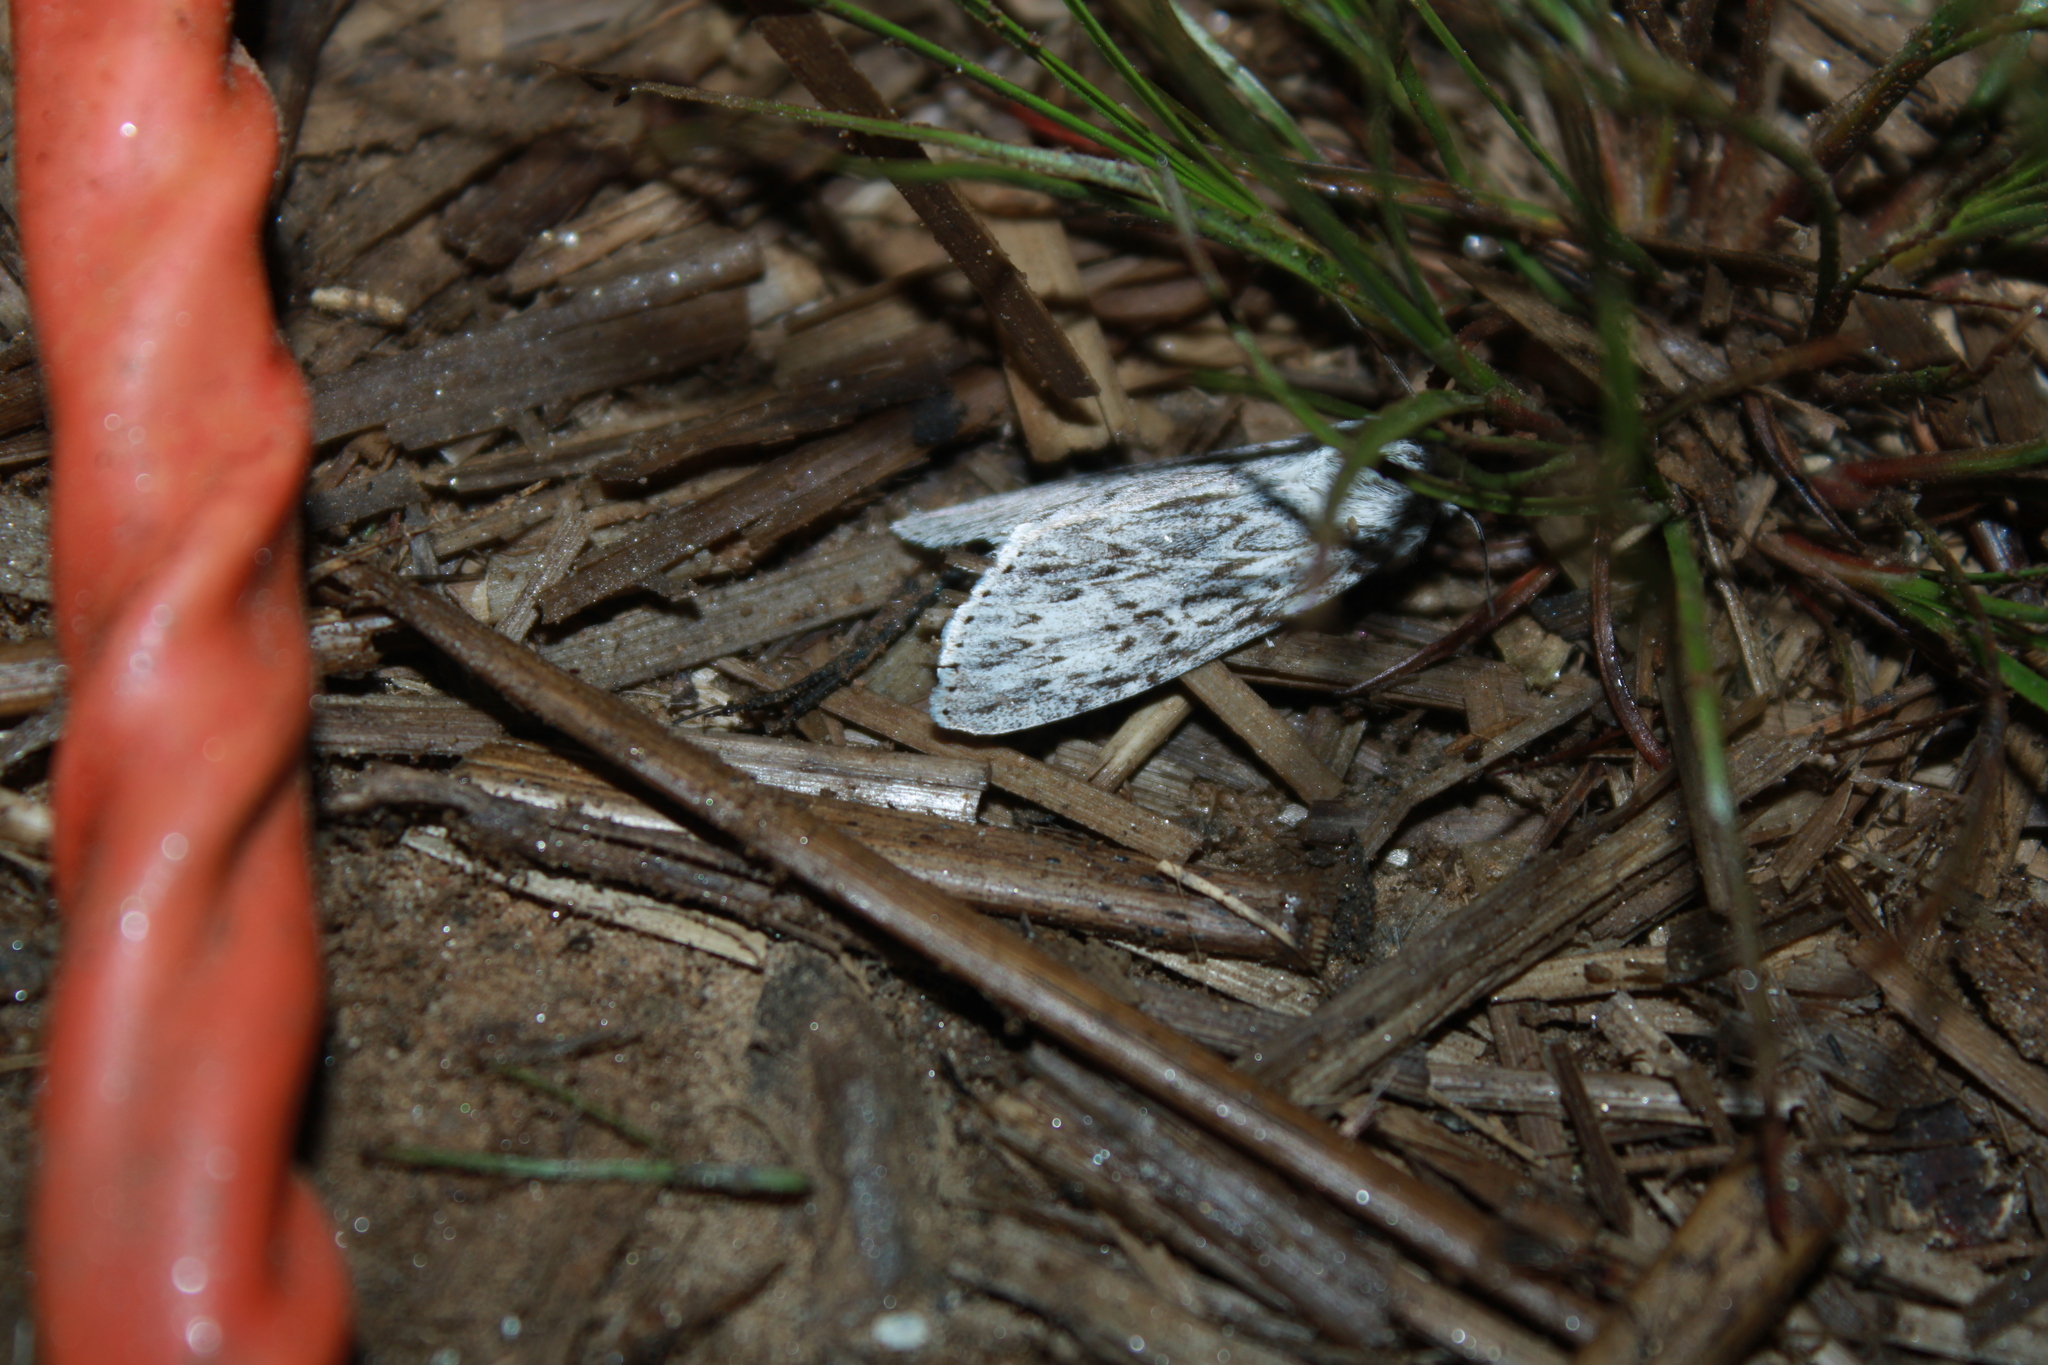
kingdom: Animalia
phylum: Arthropoda
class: Insecta
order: Lepidoptera
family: Noctuidae
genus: Acronicta
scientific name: Acronicta oblinita
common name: Smeared dagger
